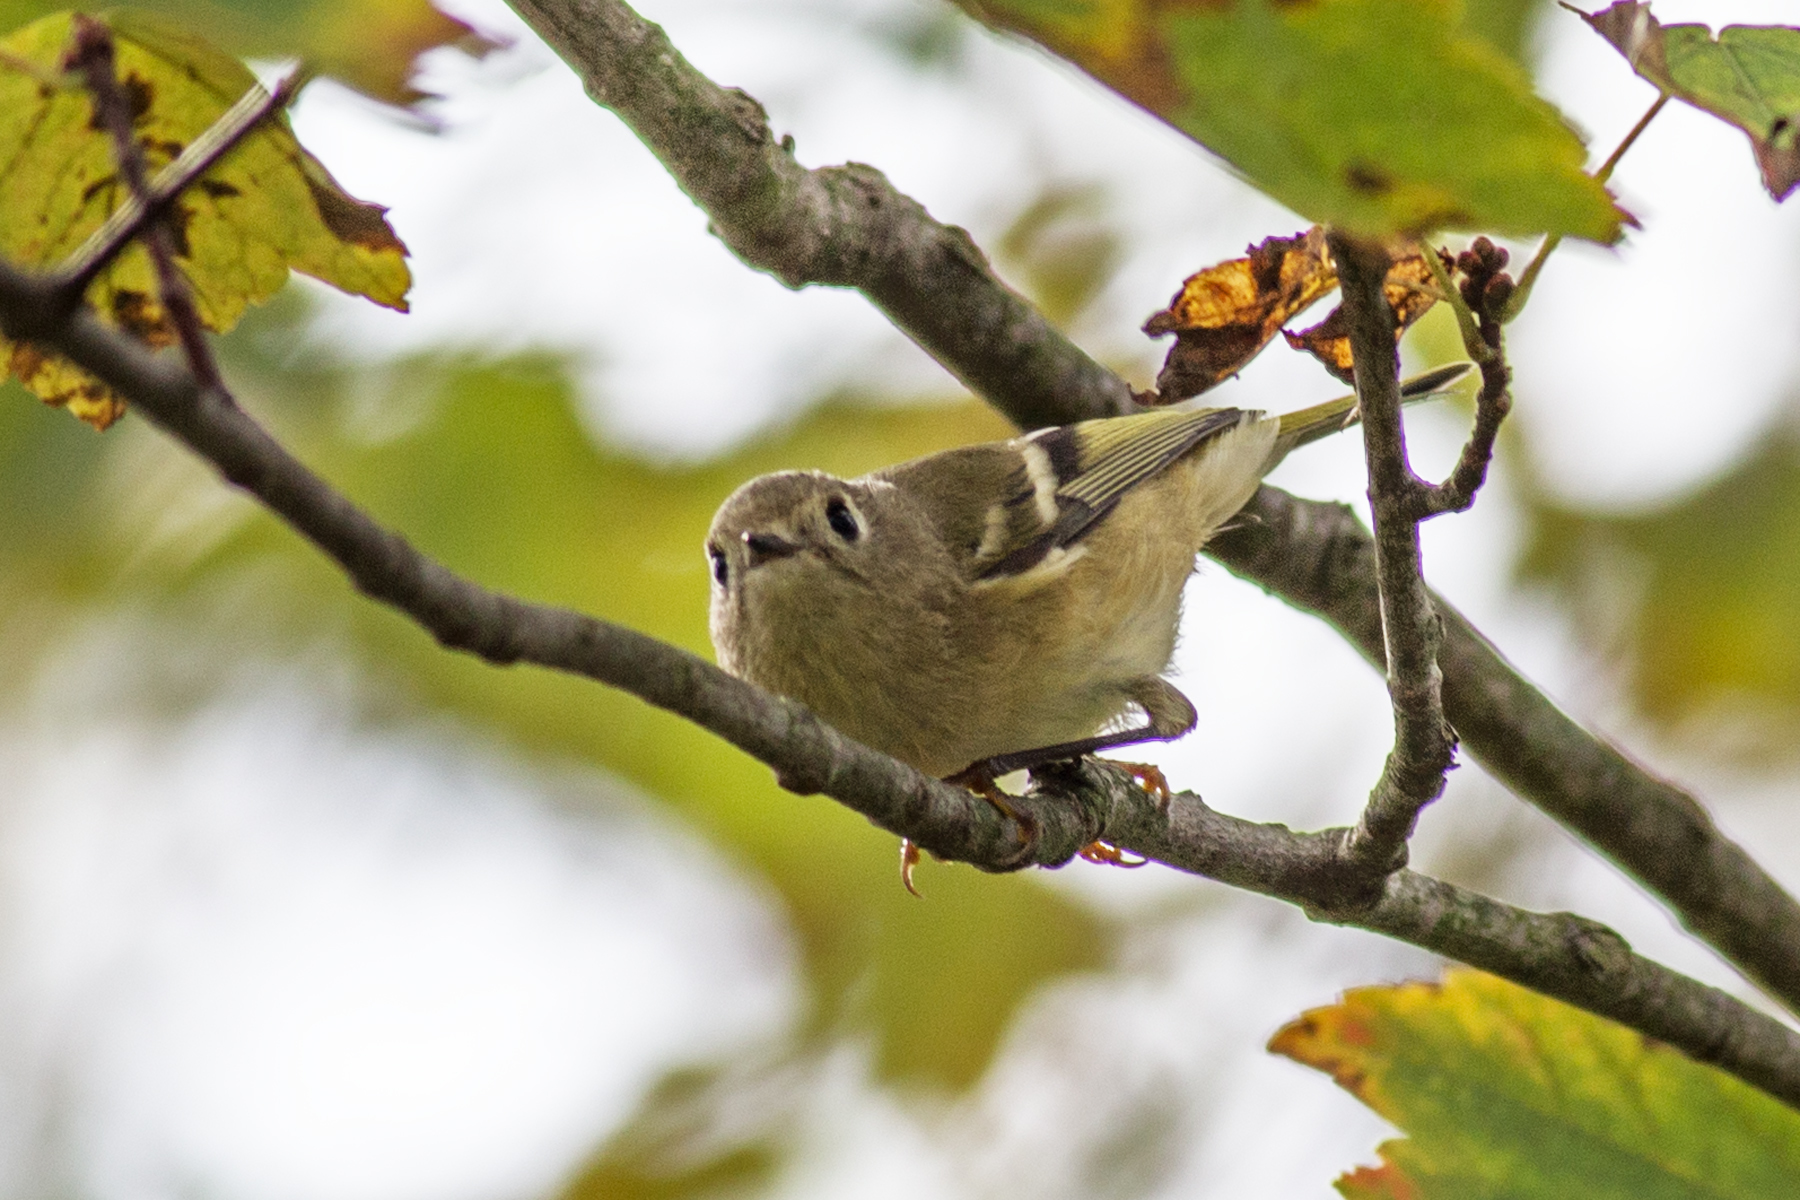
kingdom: Animalia
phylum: Chordata
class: Aves
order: Passeriformes
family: Regulidae
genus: Regulus
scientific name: Regulus calendula
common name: Ruby-crowned kinglet
